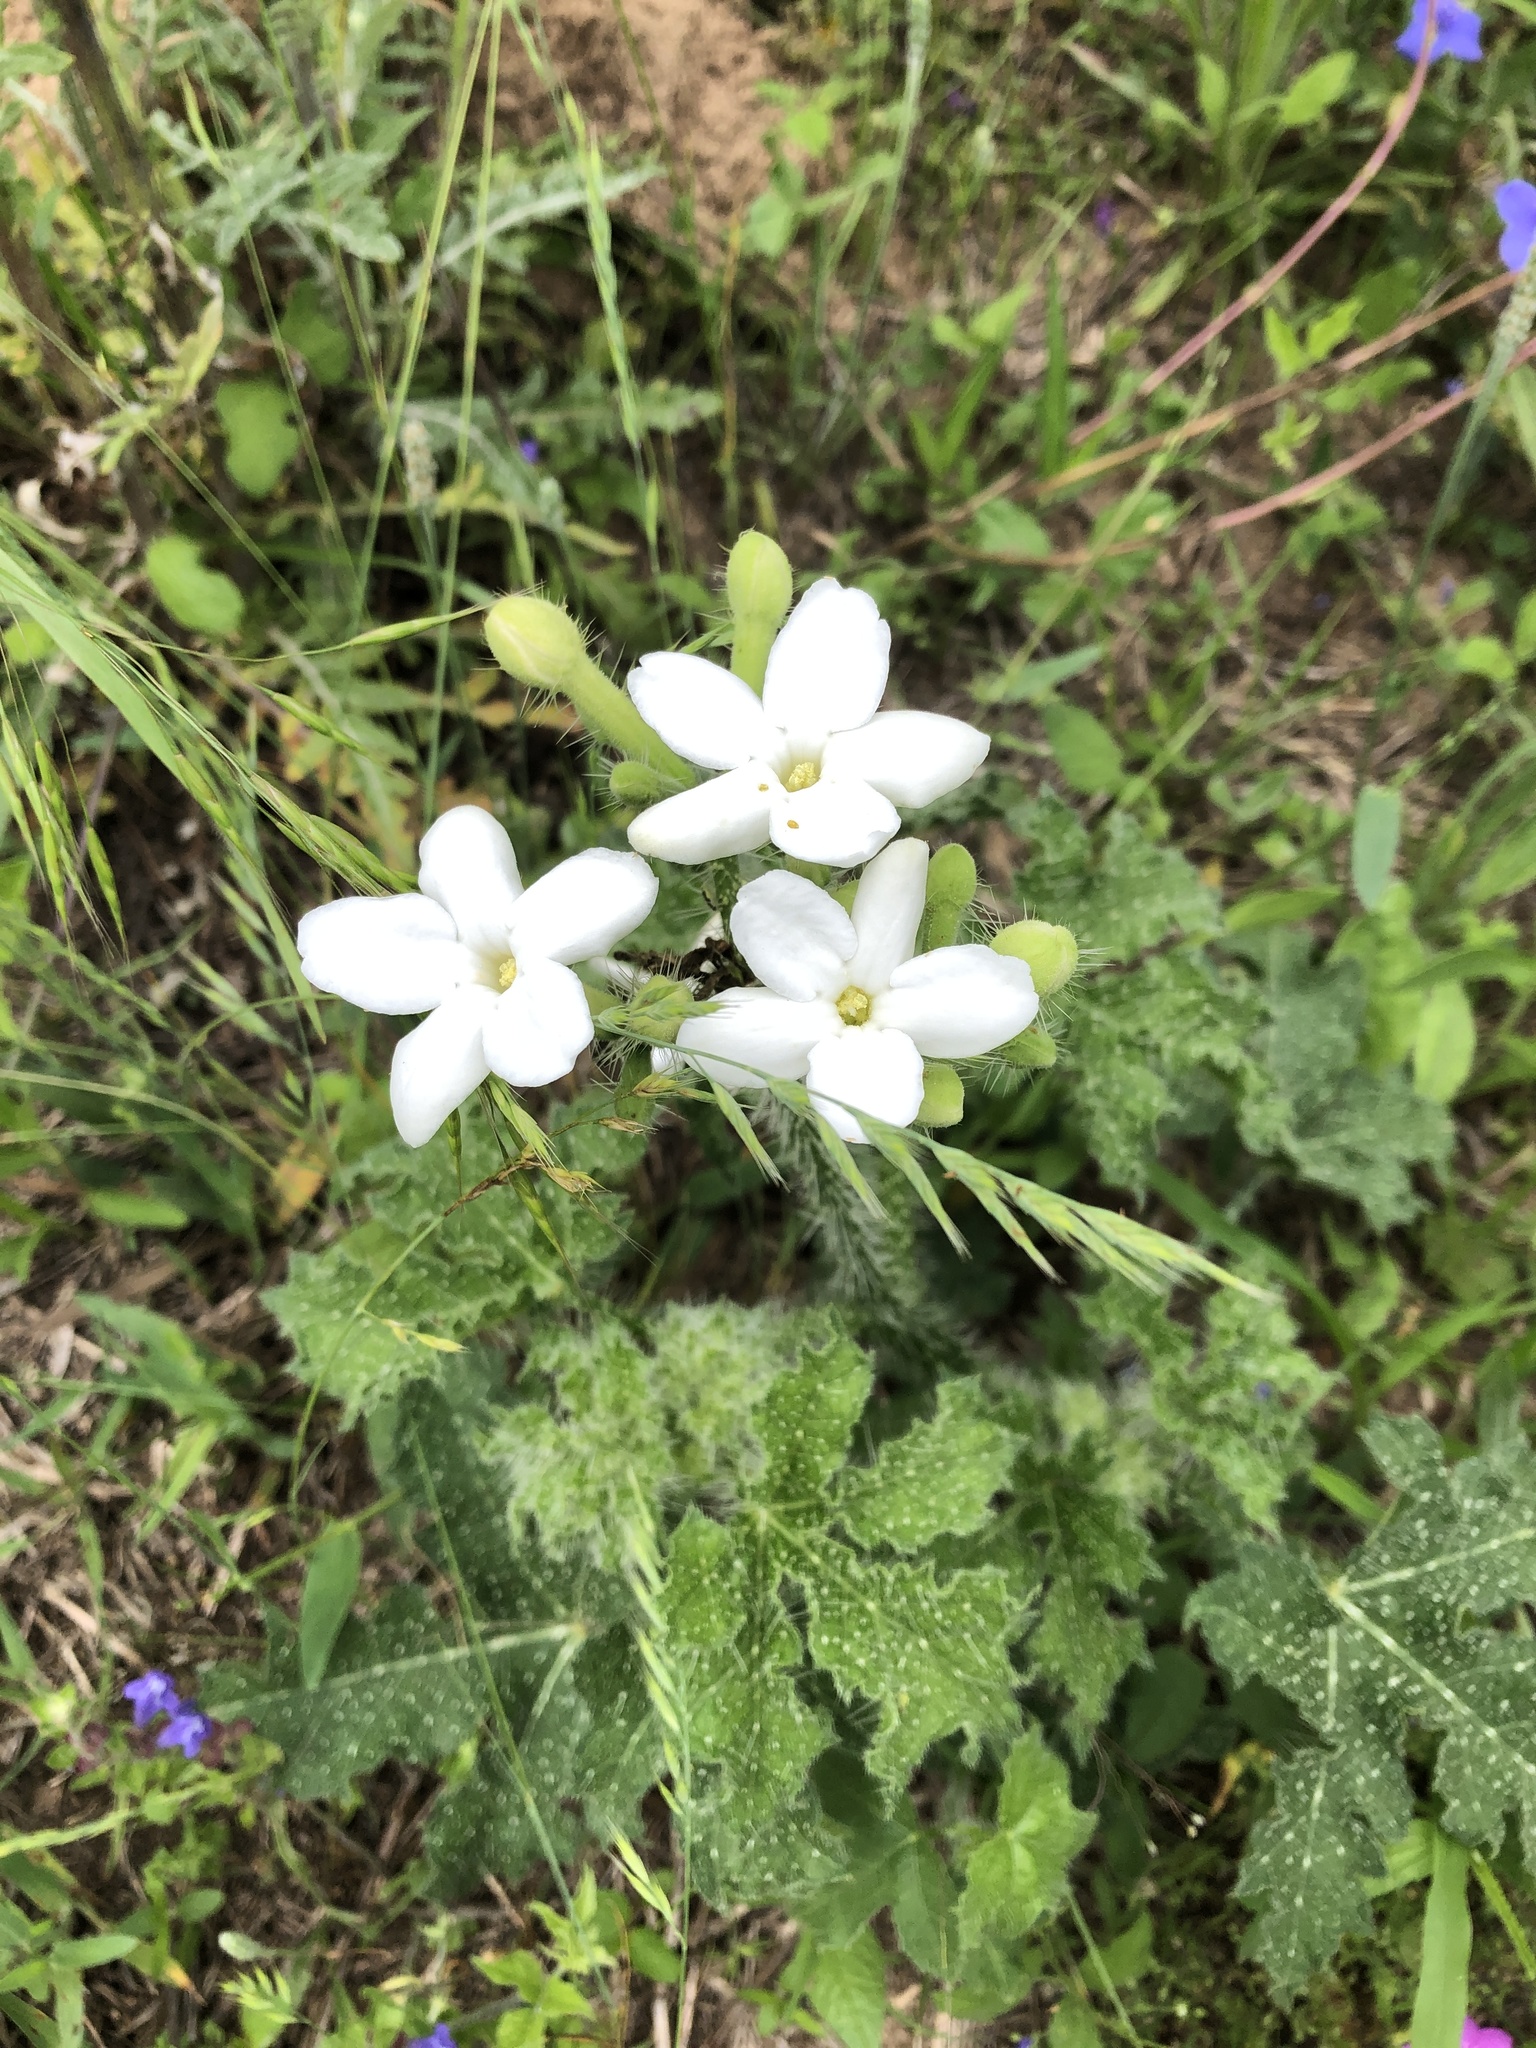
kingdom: Plantae
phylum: Tracheophyta
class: Magnoliopsida
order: Malpighiales
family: Euphorbiaceae
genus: Cnidoscolus
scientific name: Cnidoscolus texanus
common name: Texas bull-nettle
